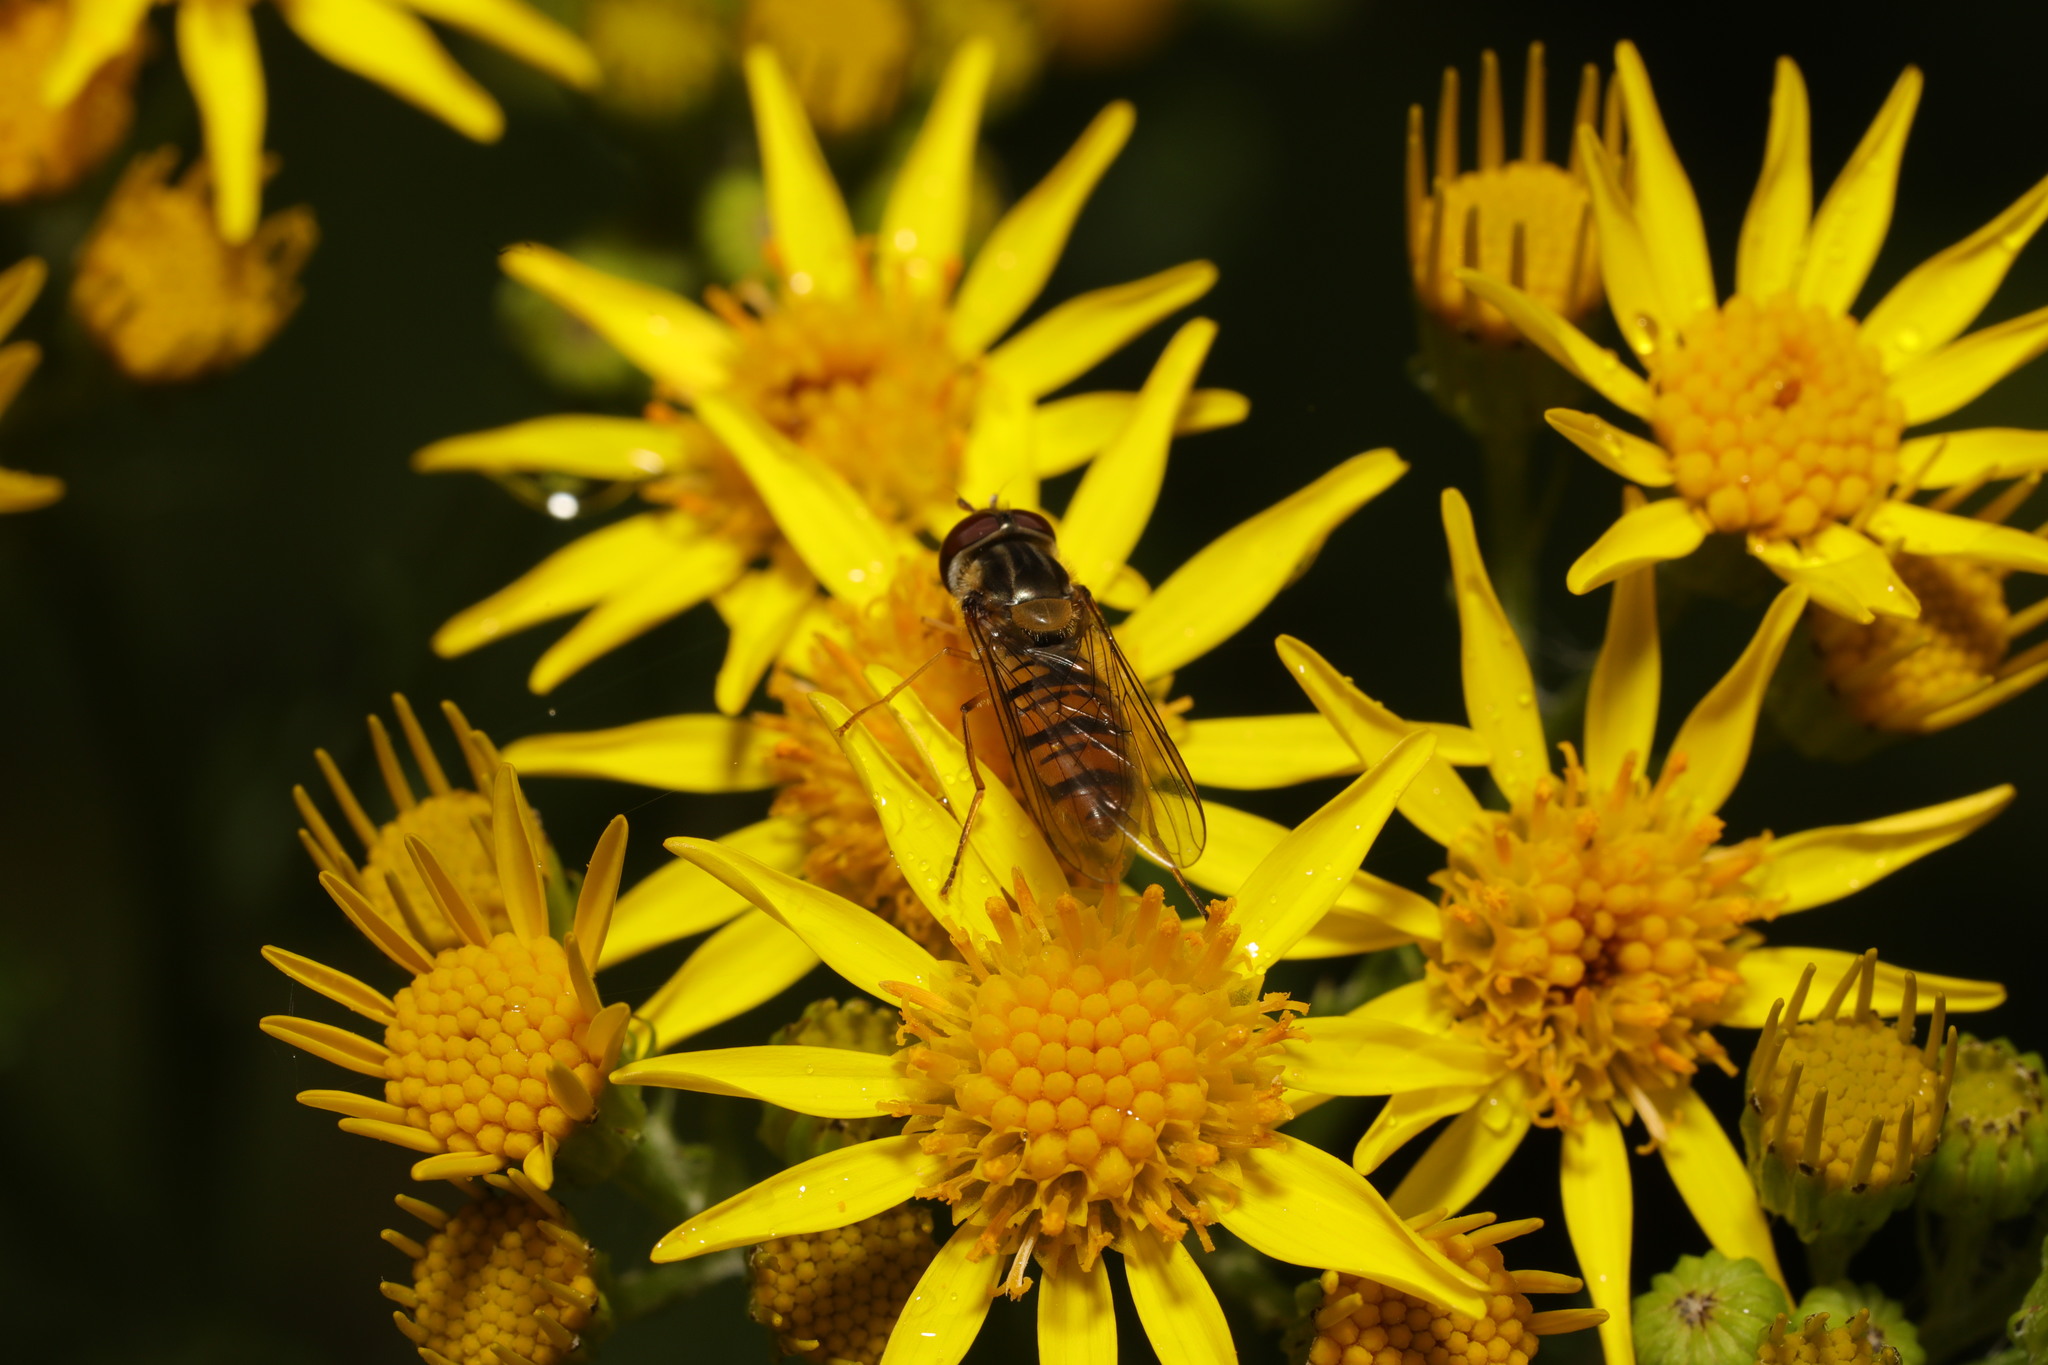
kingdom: Animalia
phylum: Arthropoda
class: Insecta
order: Diptera
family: Syrphidae
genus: Episyrphus
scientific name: Episyrphus balteatus
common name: Marmalade hoverfly
